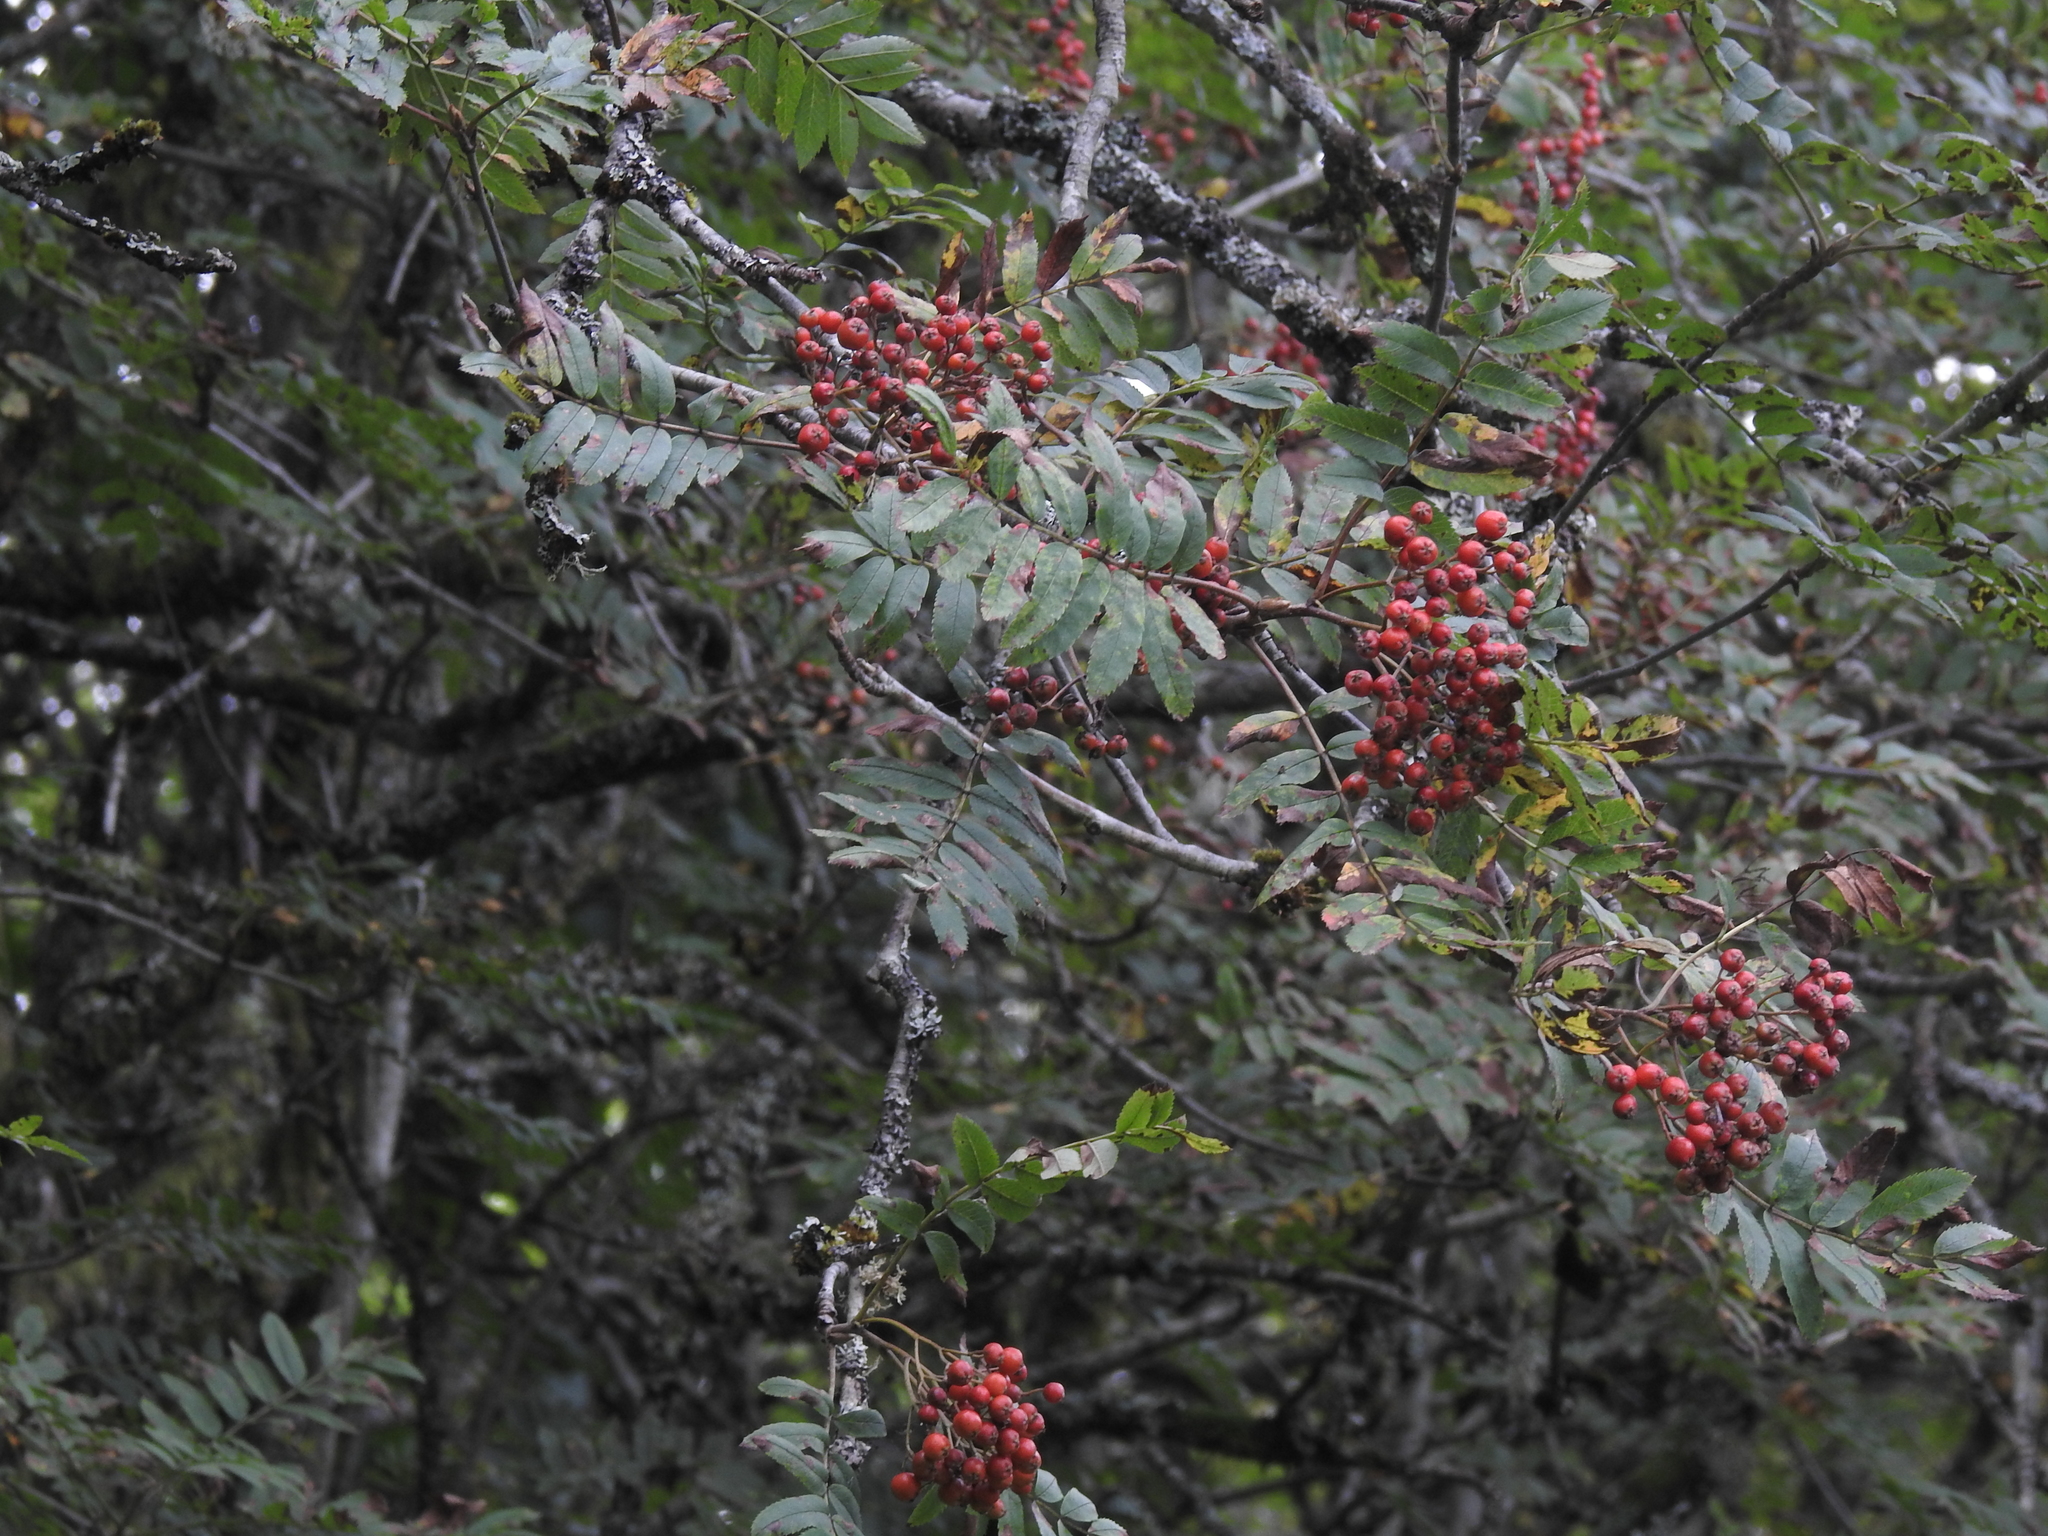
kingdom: Plantae
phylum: Tracheophyta
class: Magnoliopsida
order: Rosales
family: Rosaceae
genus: Sorbus
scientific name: Sorbus aucuparia
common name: Rowan
